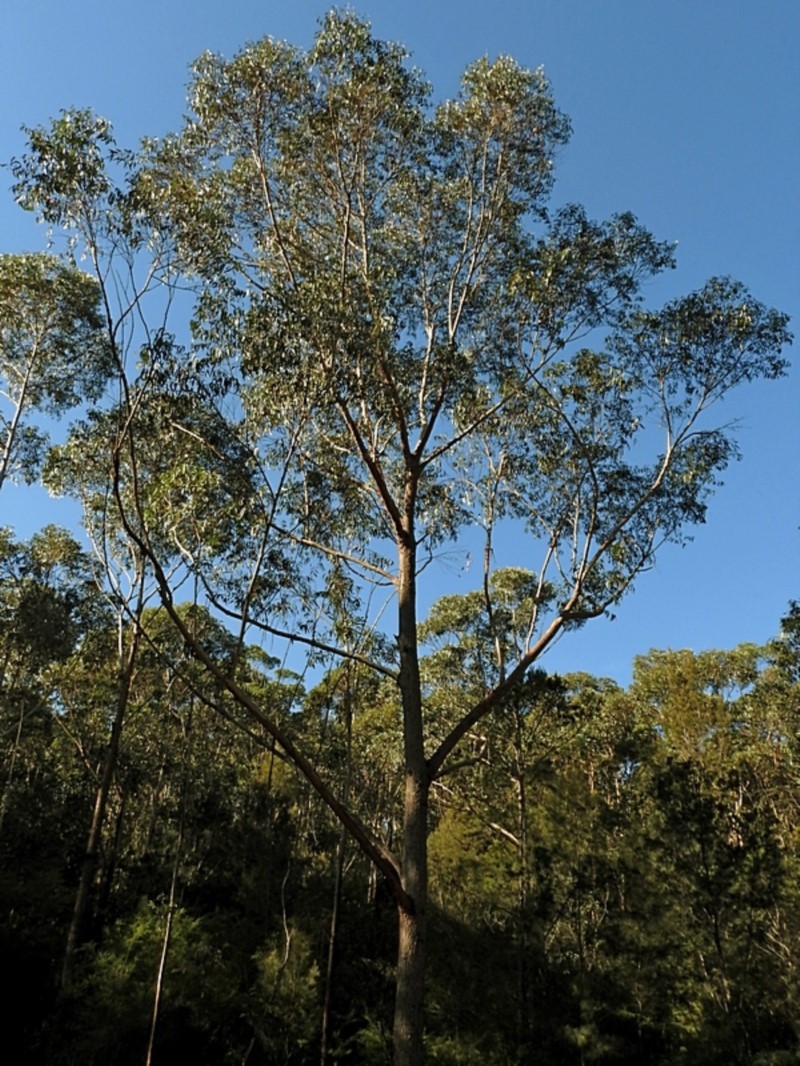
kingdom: Plantae
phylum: Tracheophyta
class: Magnoliopsida
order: Myrtales
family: Myrtaceae
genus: Eucalyptus
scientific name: Eucalyptus sieberi
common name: Black-ash
